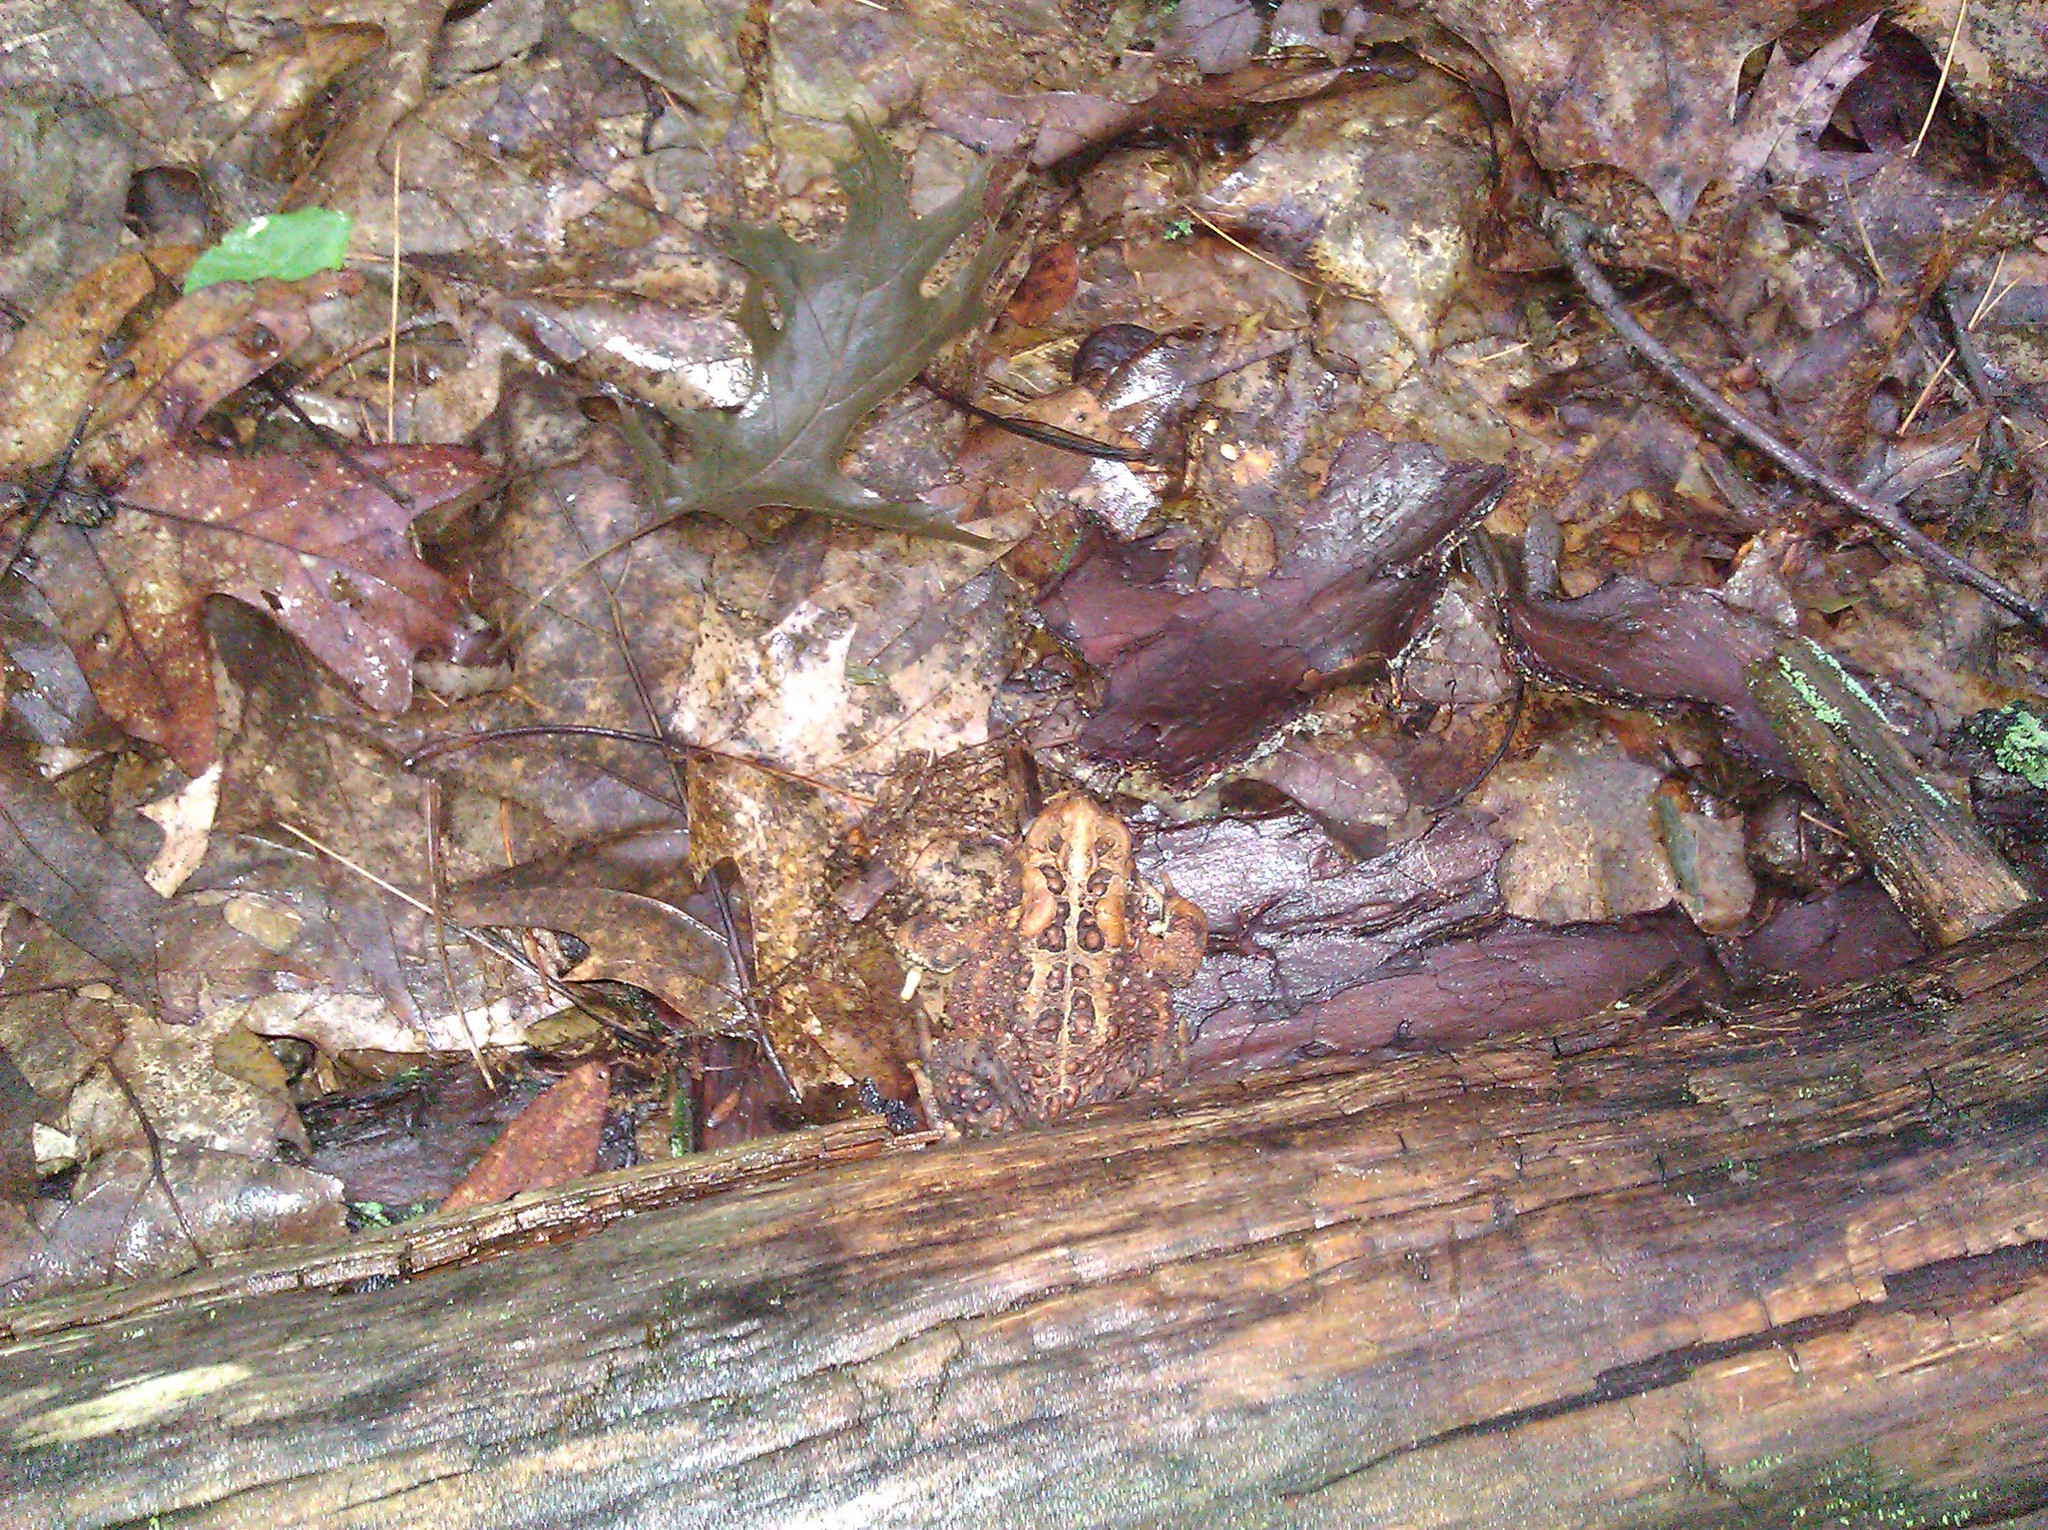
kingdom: Animalia
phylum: Chordata
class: Amphibia
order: Anura
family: Bufonidae
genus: Anaxyrus
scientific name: Anaxyrus americanus
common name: American toad
